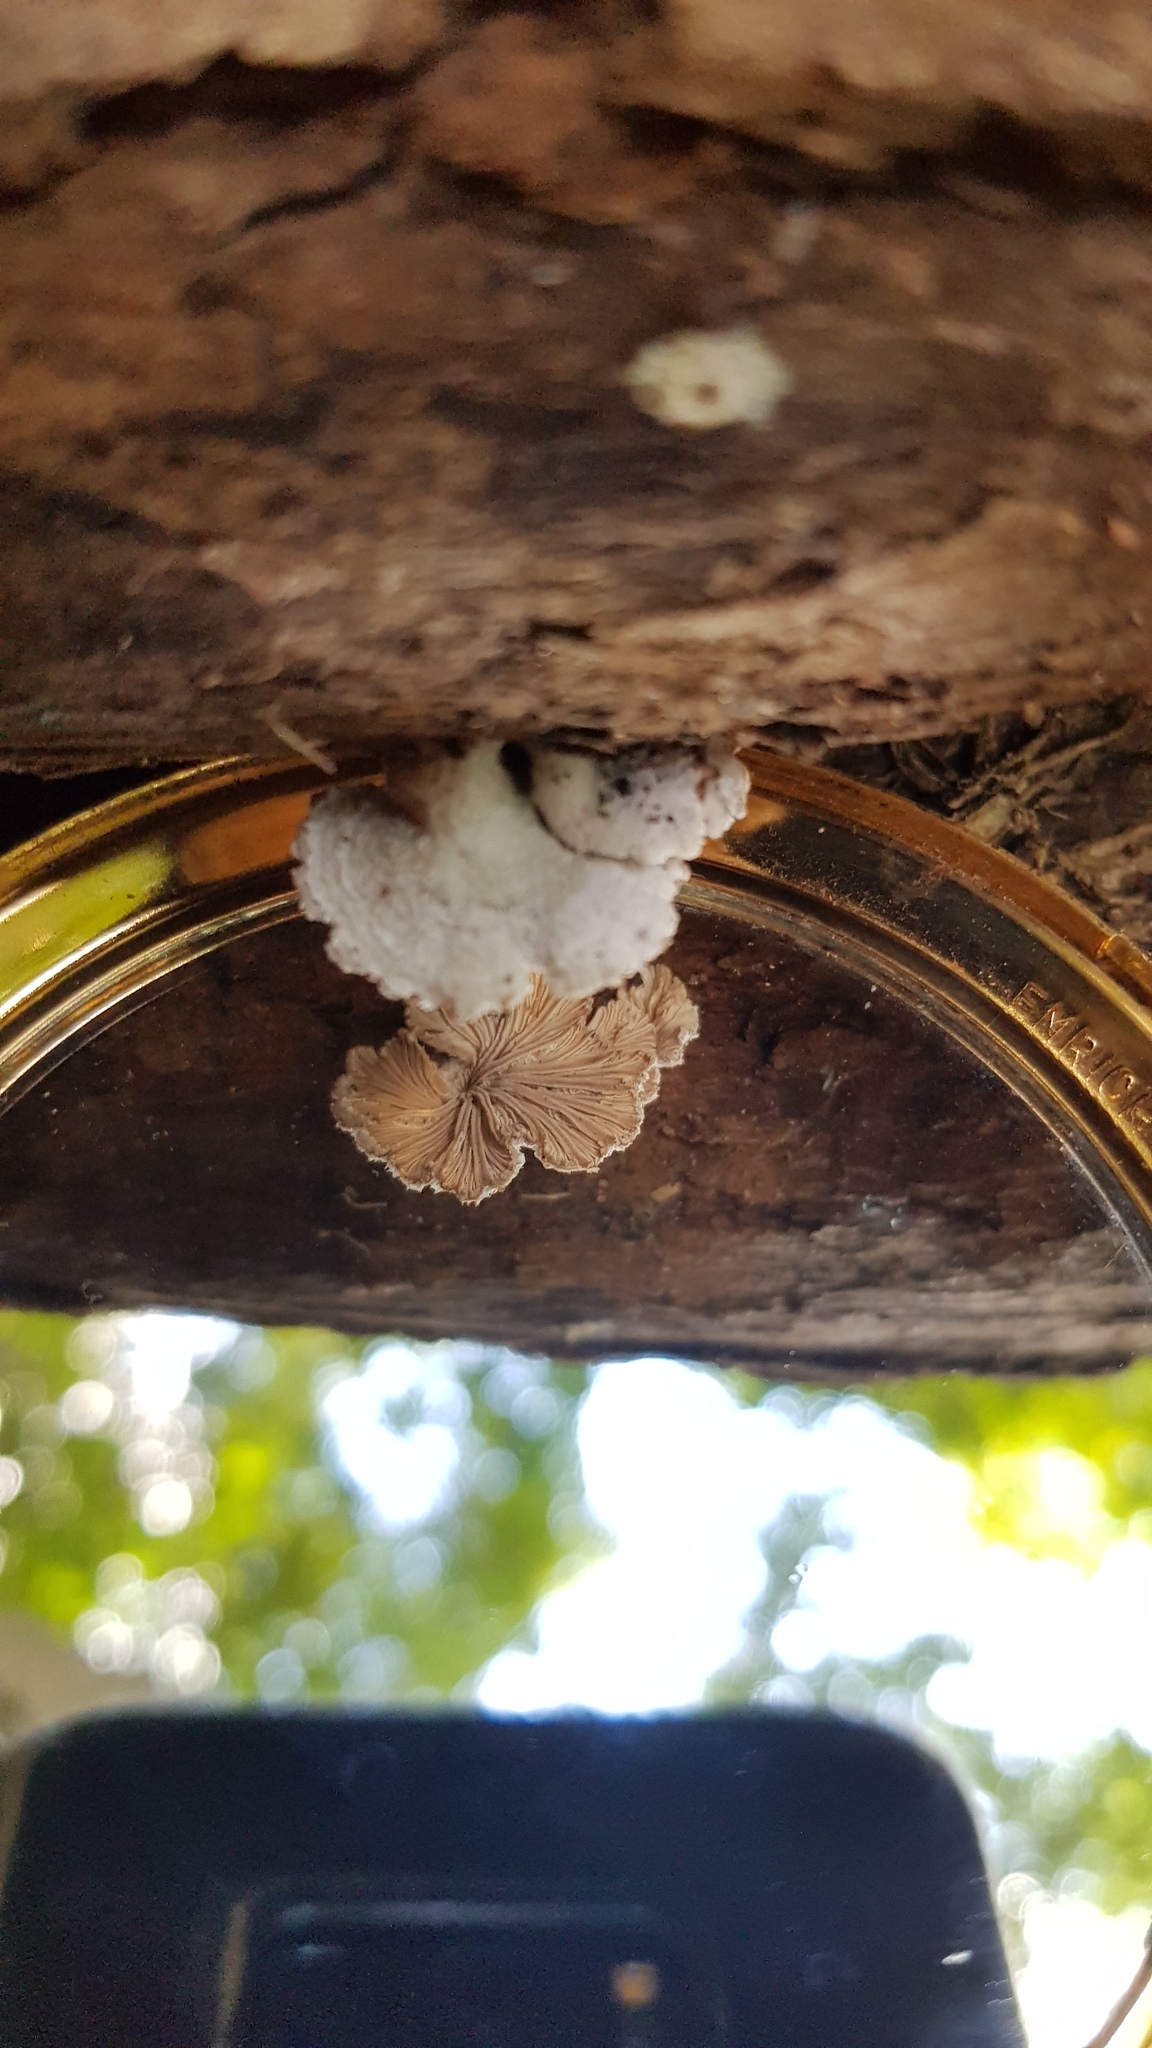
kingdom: Fungi
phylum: Basidiomycota
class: Agaricomycetes
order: Agaricales
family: Schizophyllaceae
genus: Schizophyllum
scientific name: Schizophyllum commune
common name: Common porecrust
